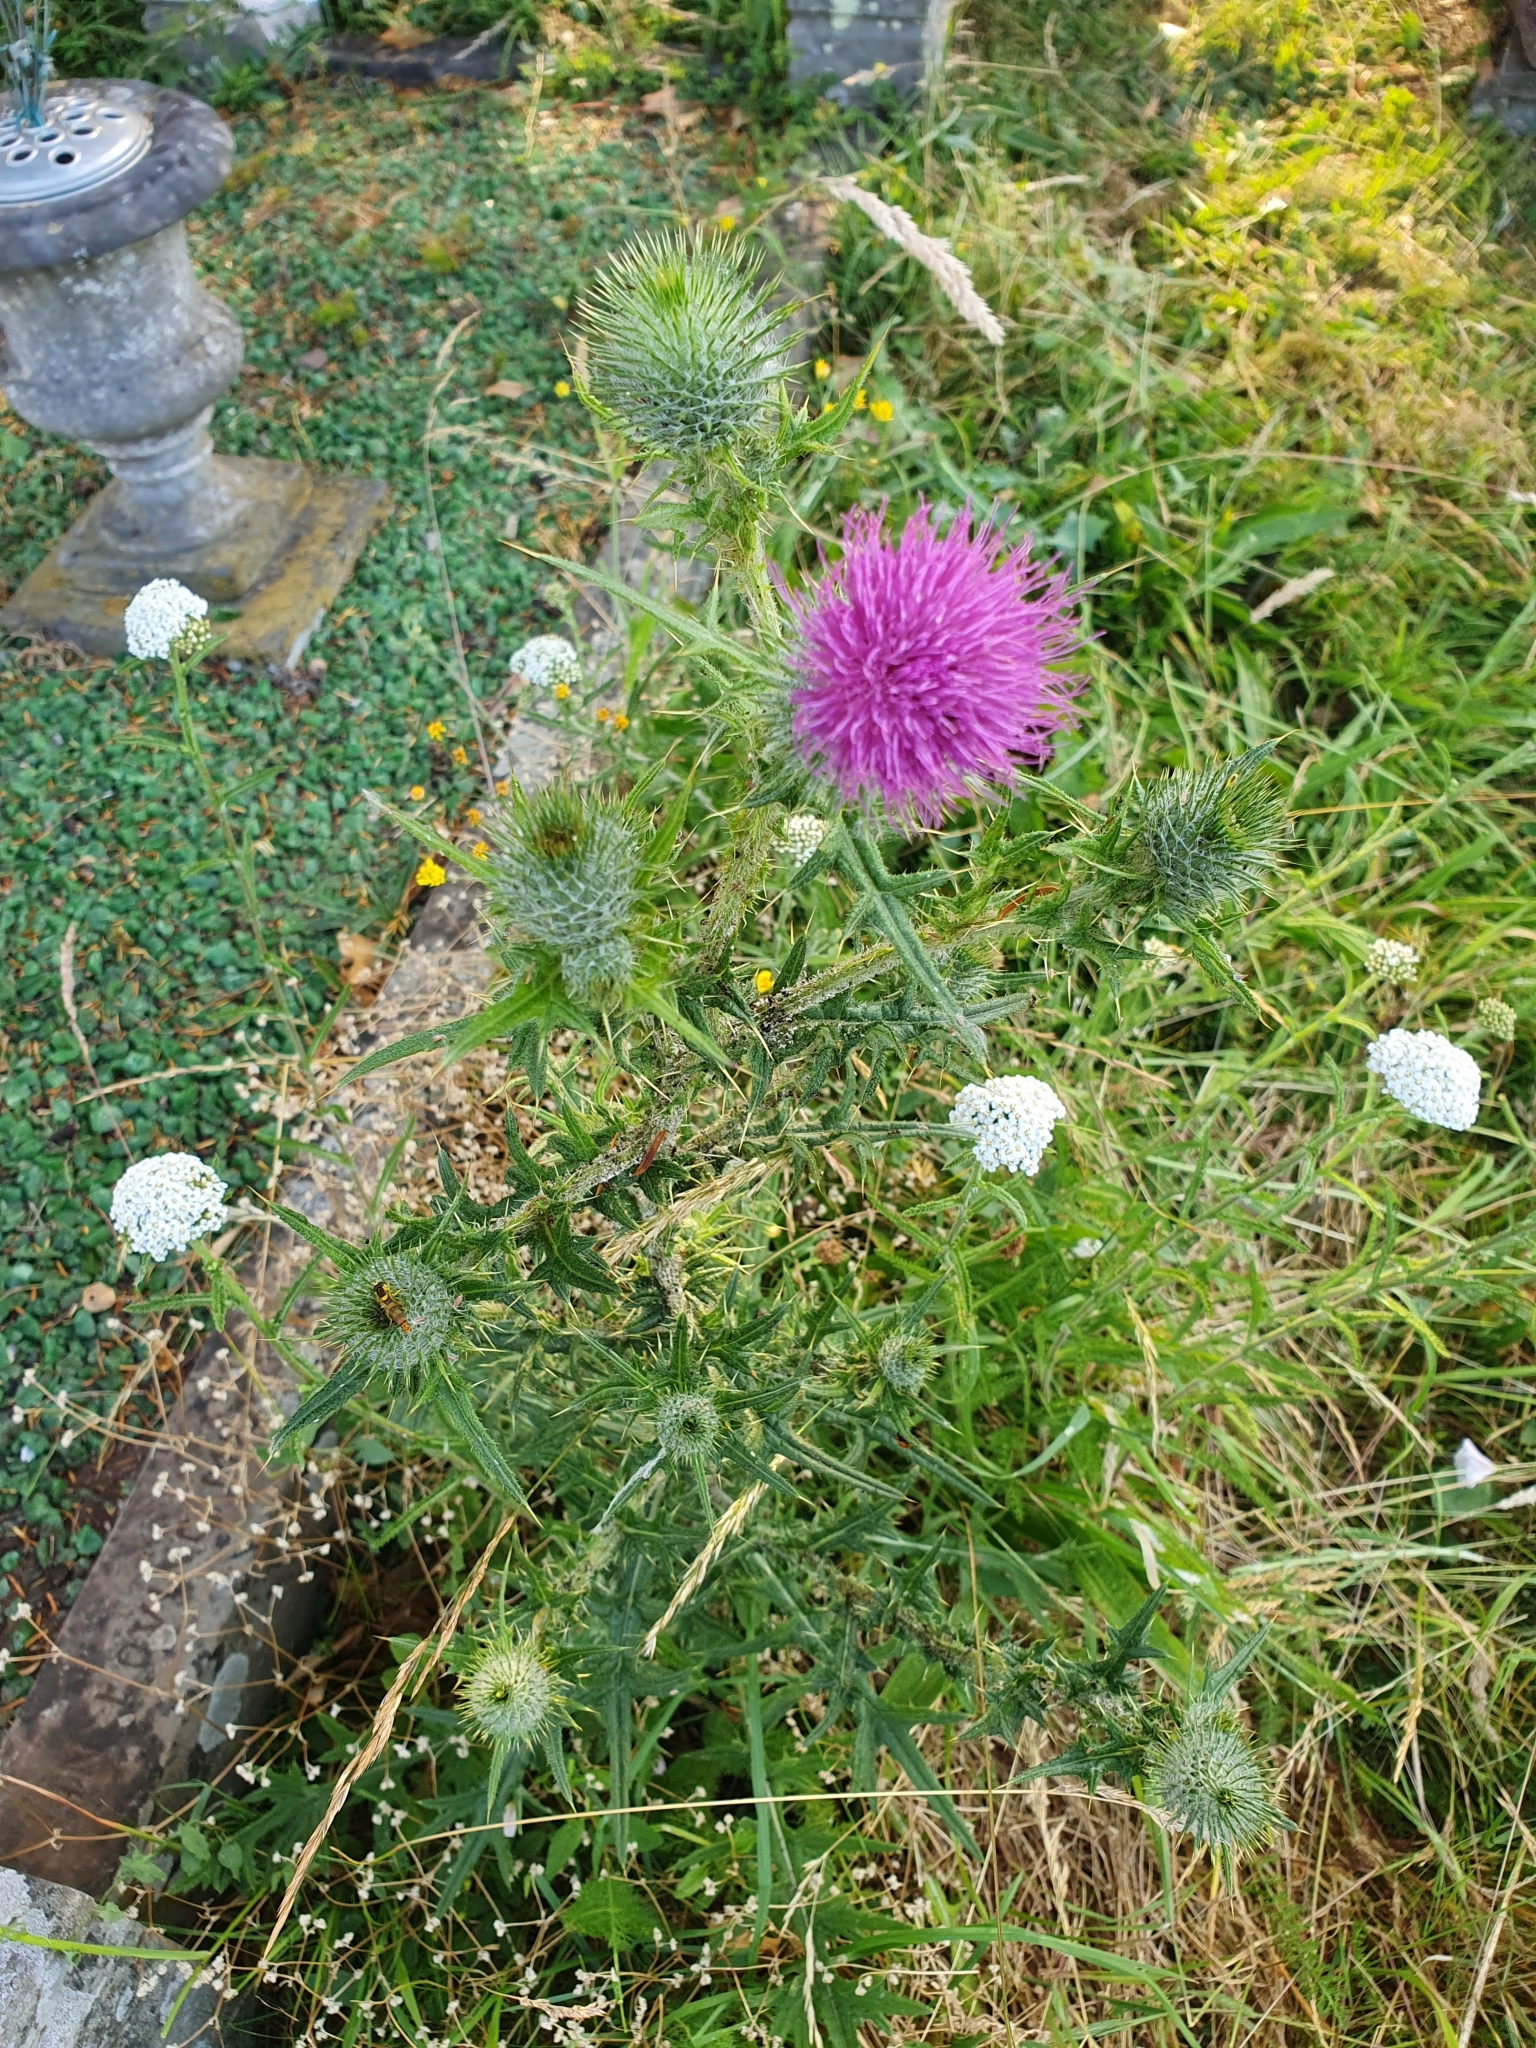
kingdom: Plantae
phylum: Tracheophyta
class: Magnoliopsida
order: Asterales
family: Asteraceae
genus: Cirsium
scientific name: Cirsium vulgare
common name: Bull thistle
